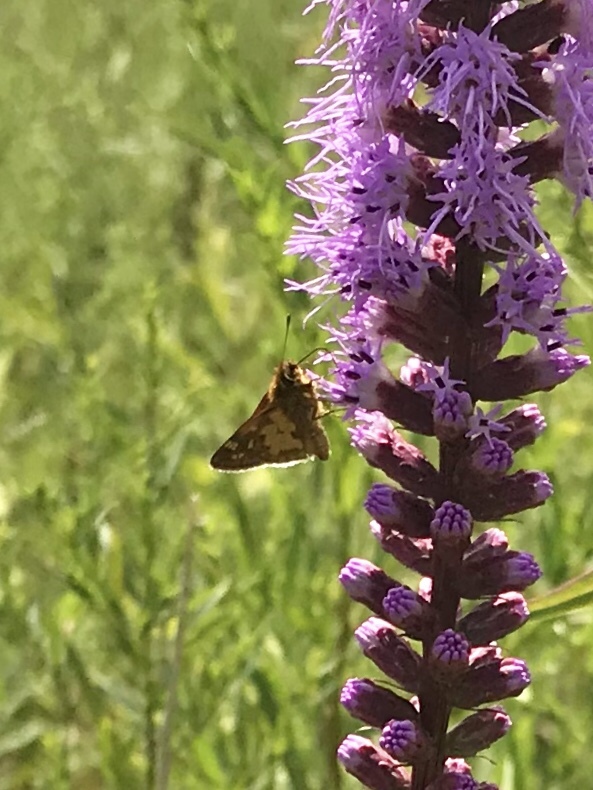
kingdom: Animalia
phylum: Arthropoda
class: Insecta
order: Lepidoptera
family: Hesperiidae
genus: Polites
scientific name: Polites coras
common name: Peck's skipper
